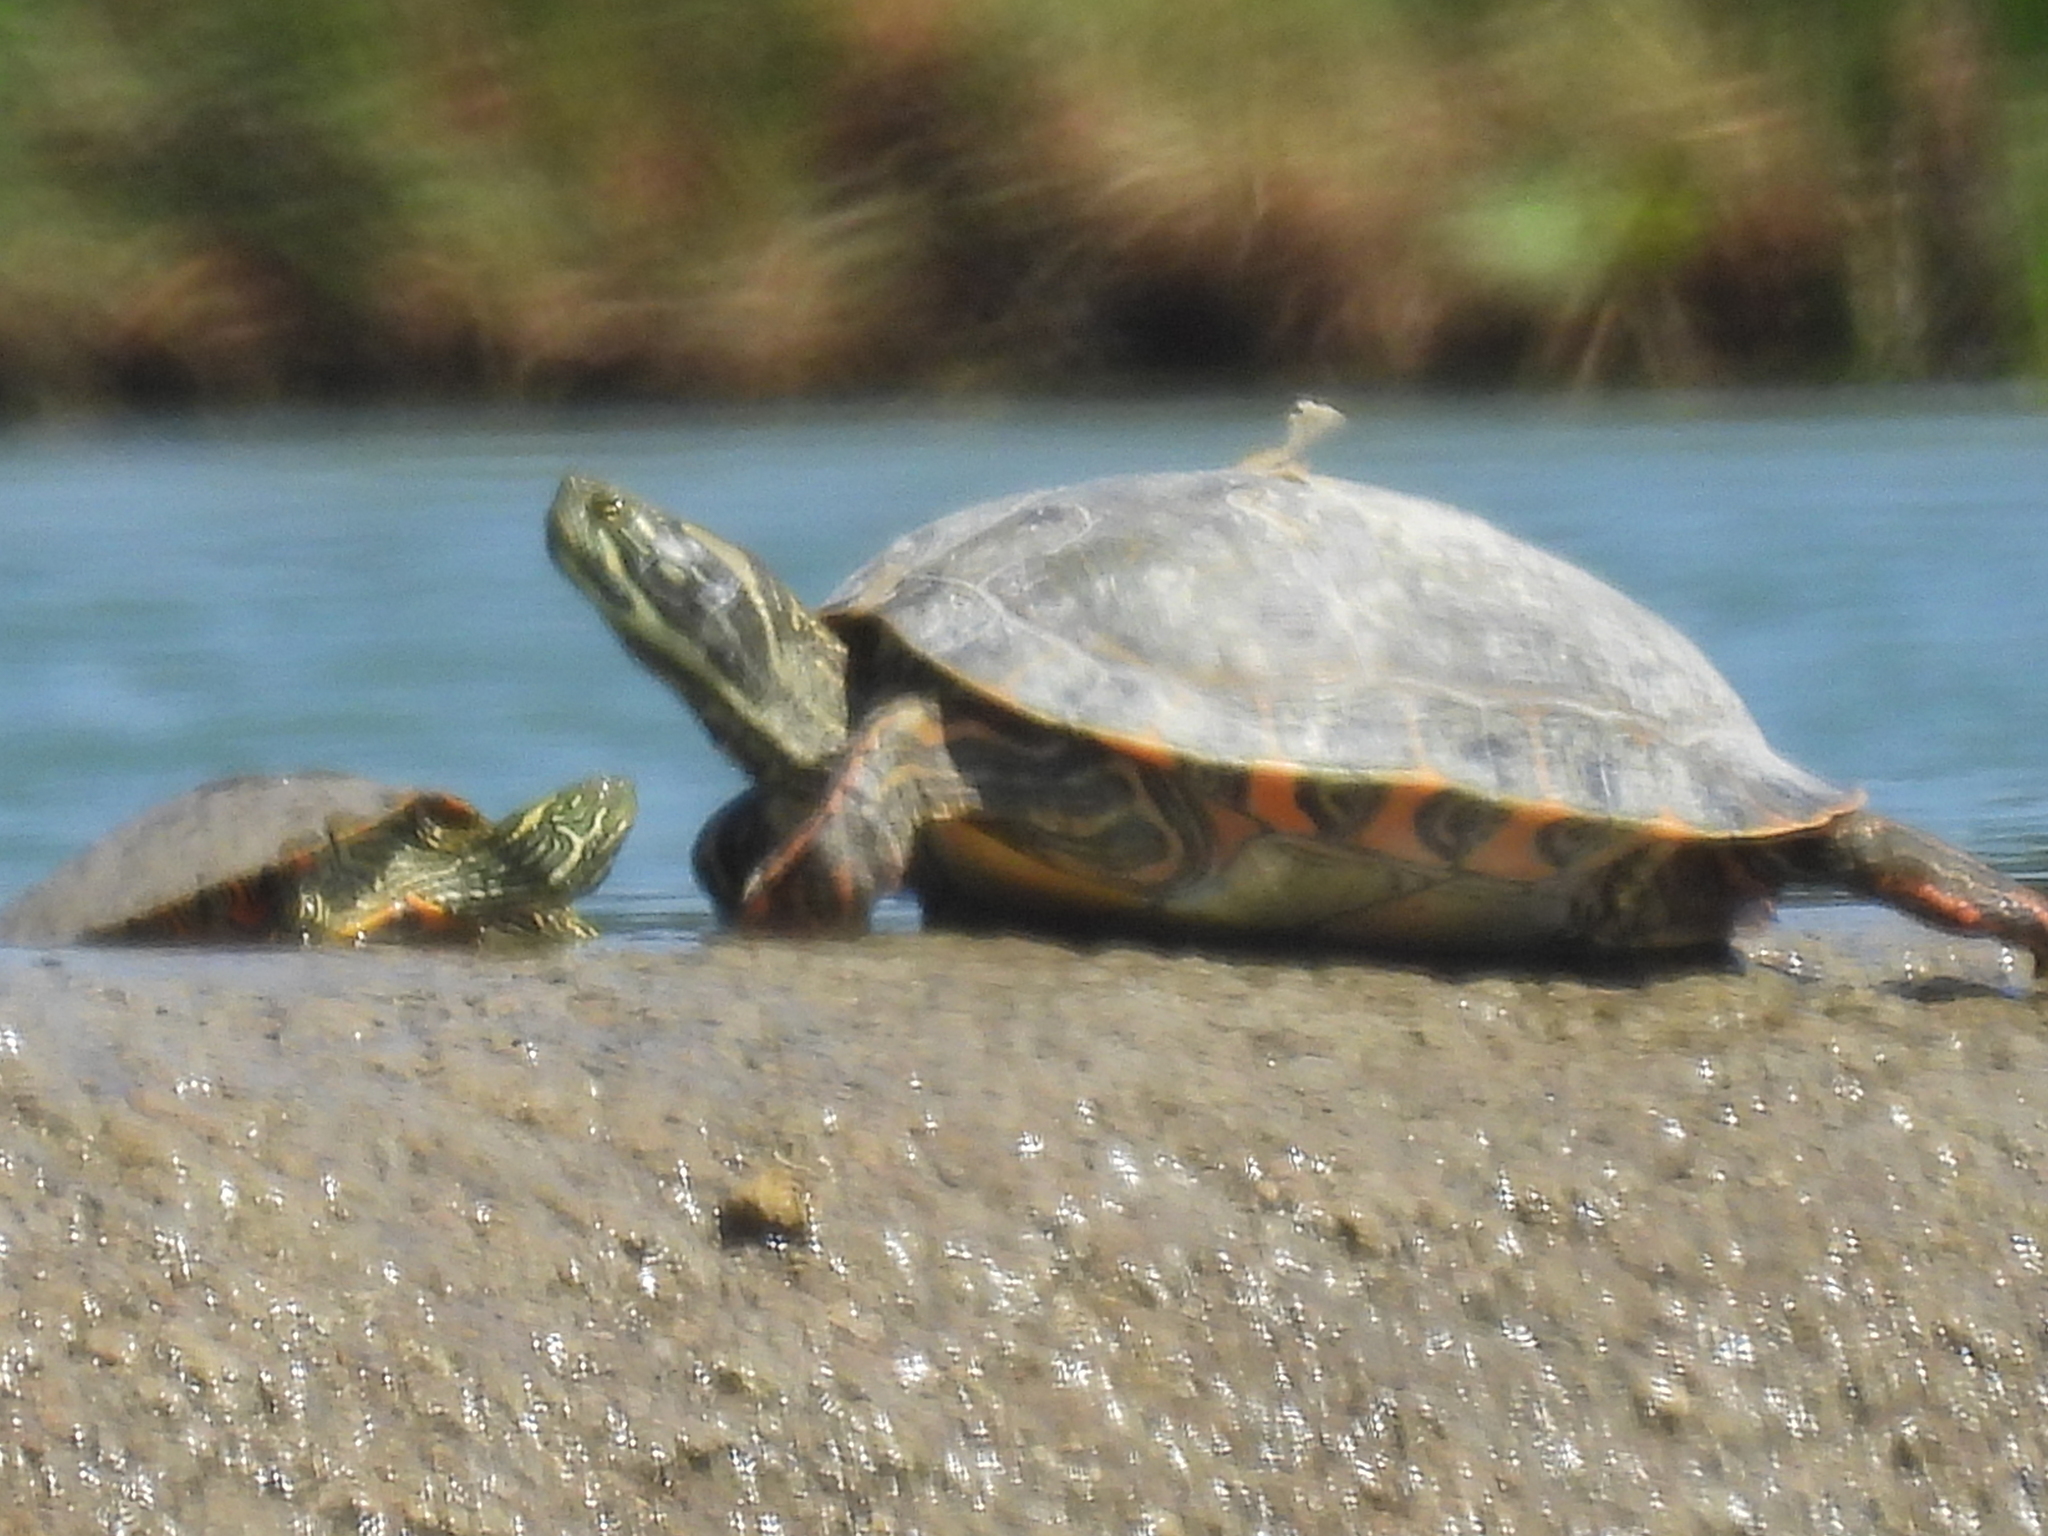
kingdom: Animalia
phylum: Chordata
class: Testudines
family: Emydidae
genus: Pseudemys
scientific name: Pseudemys gorzugi
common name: Rio grande cooter
